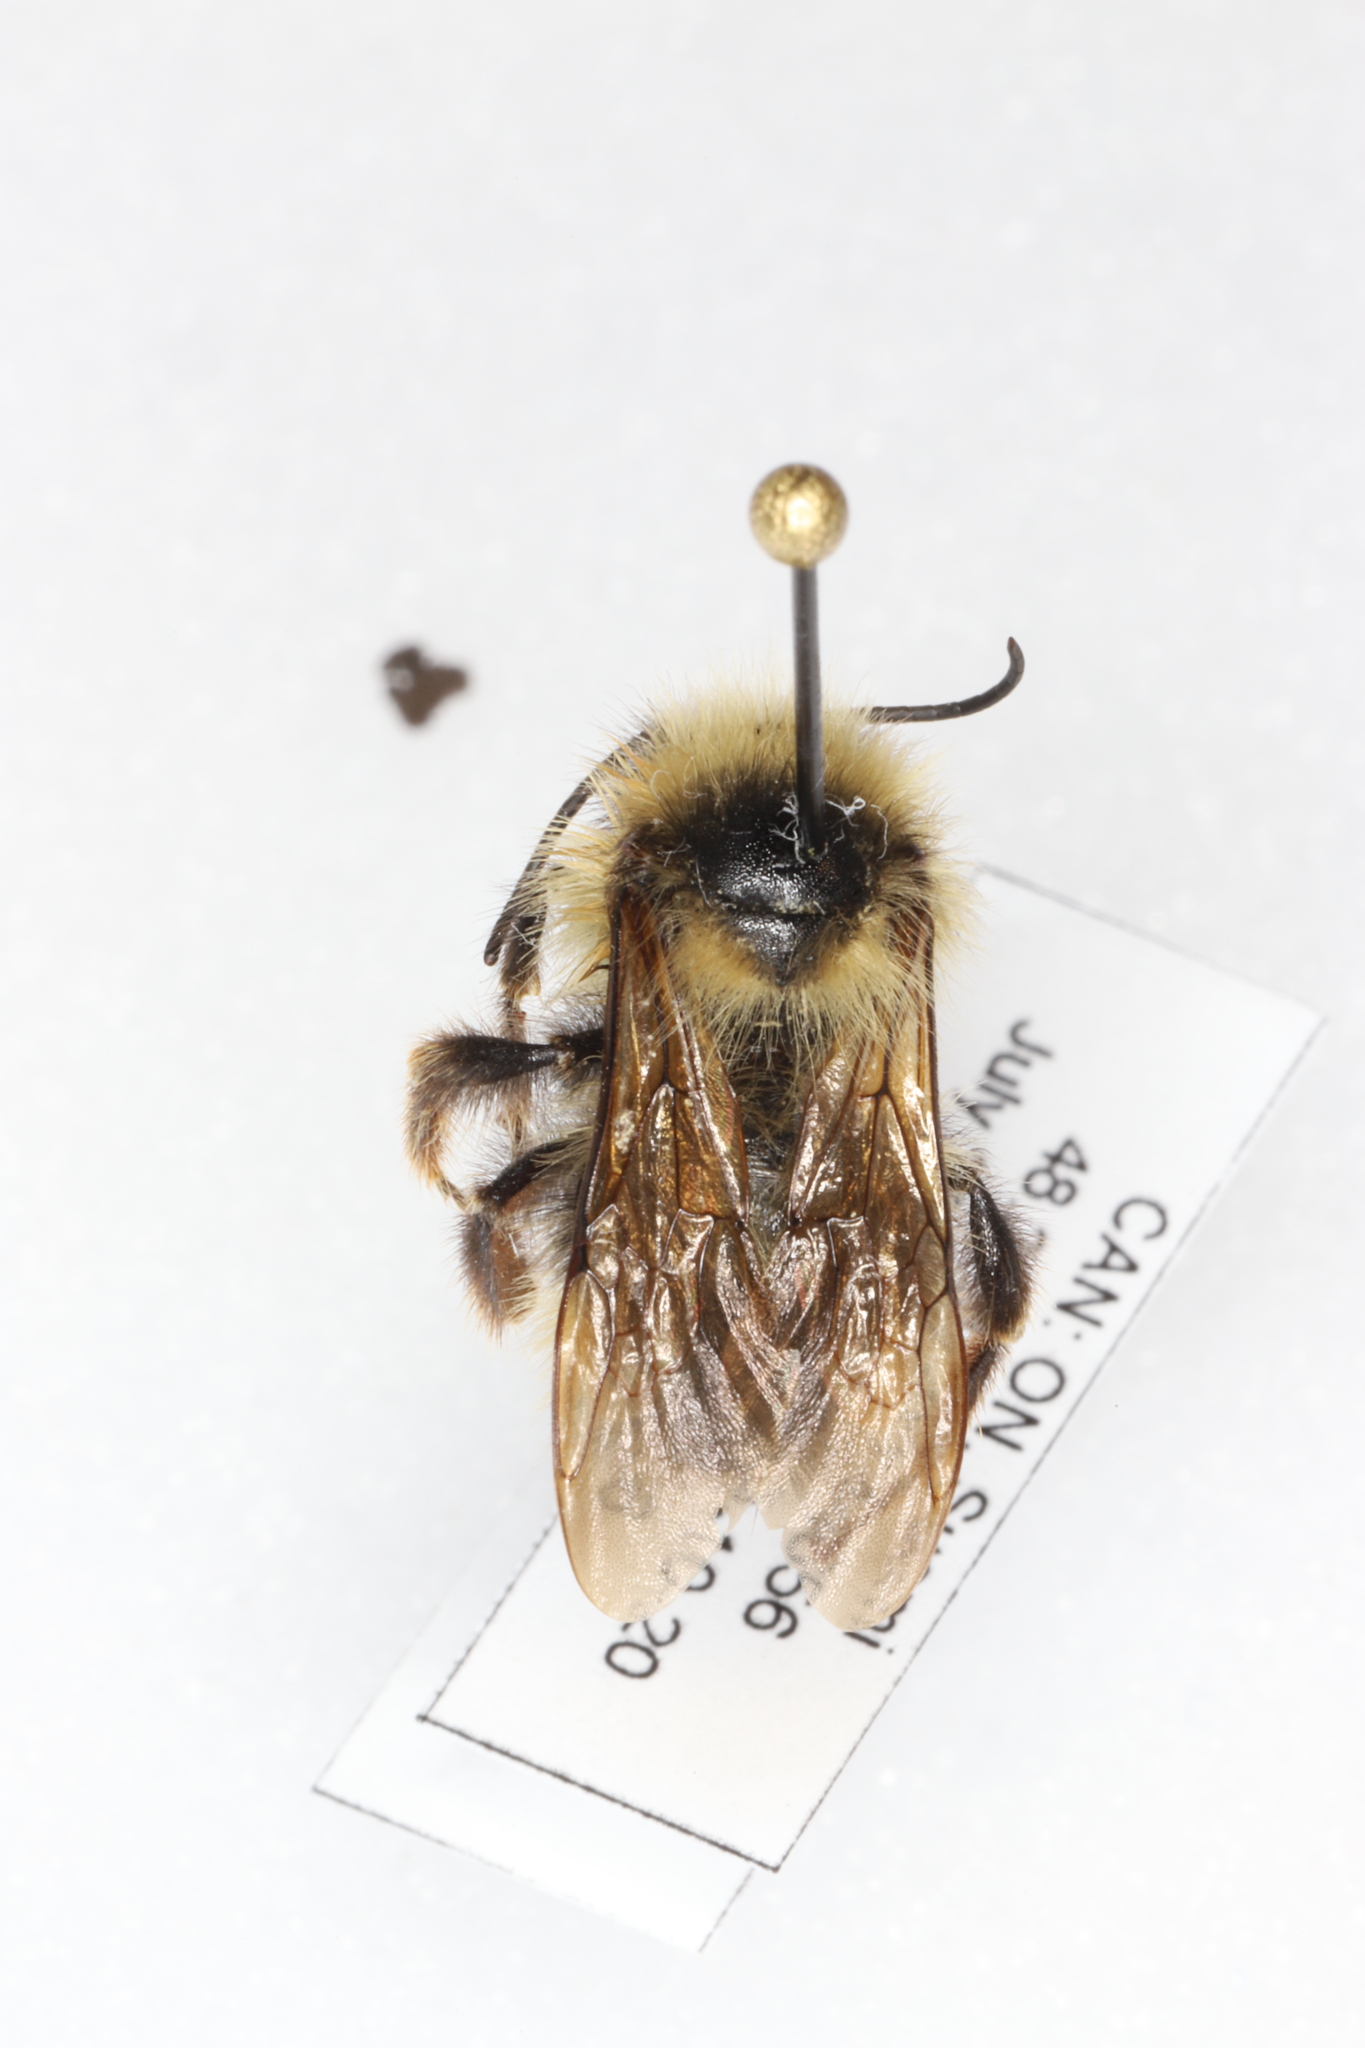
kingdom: Animalia
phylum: Arthropoda
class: Insecta
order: Hymenoptera
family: Apidae
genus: Bombus
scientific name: Bombus flavidus
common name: Fernald cuckoo bumble bee
